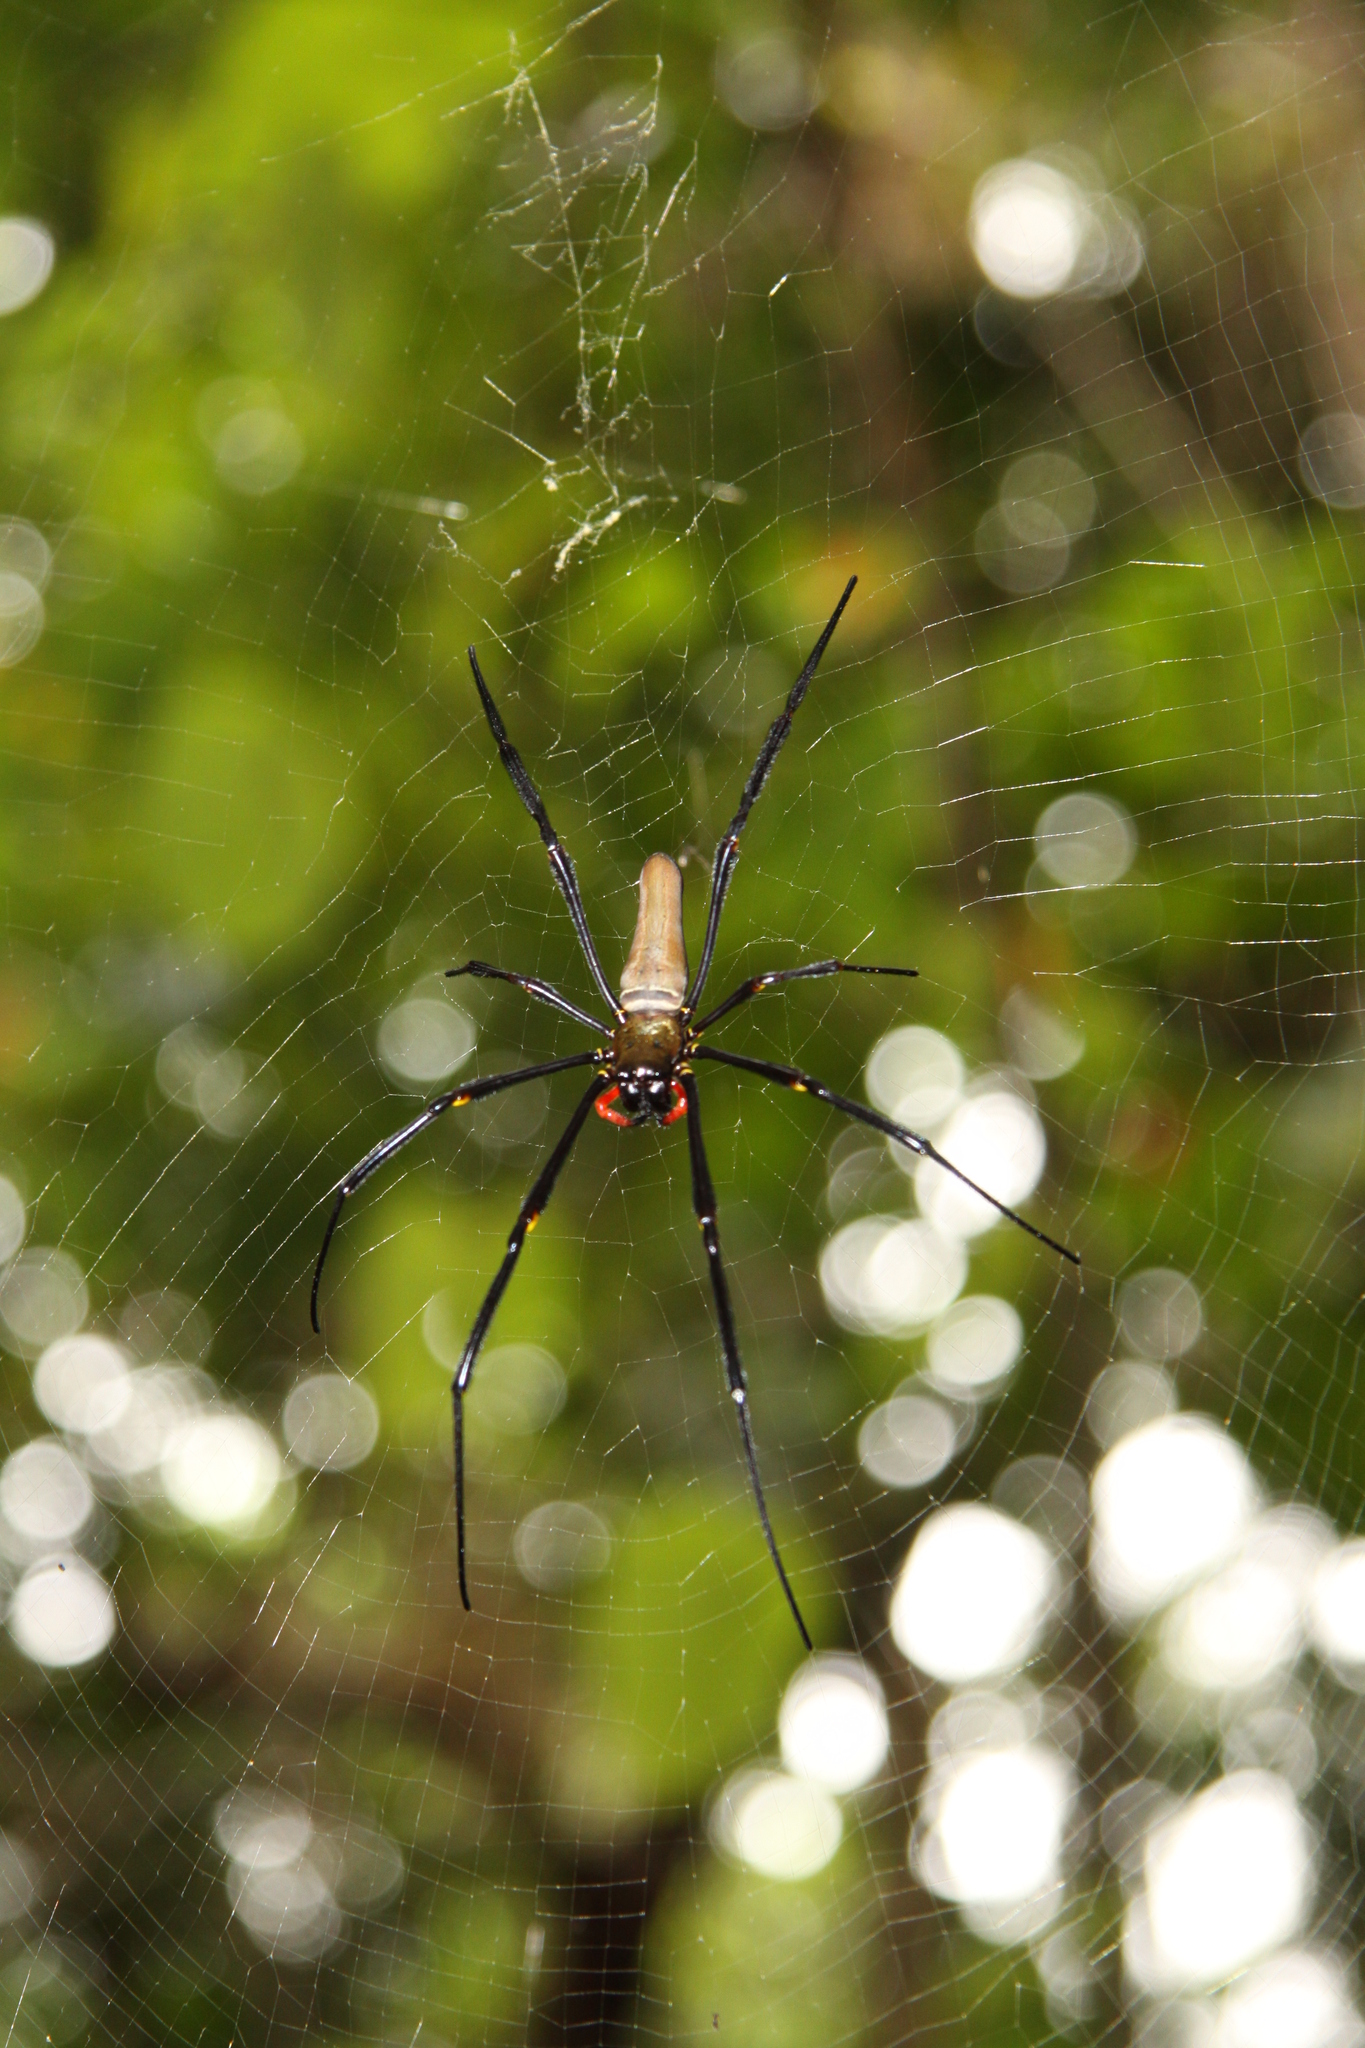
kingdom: Animalia
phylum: Arthropoda
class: Arachnida
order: Araneae
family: Araneidae
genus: Nephila
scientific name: Nephila pilipes
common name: Giant golden orb weaver
